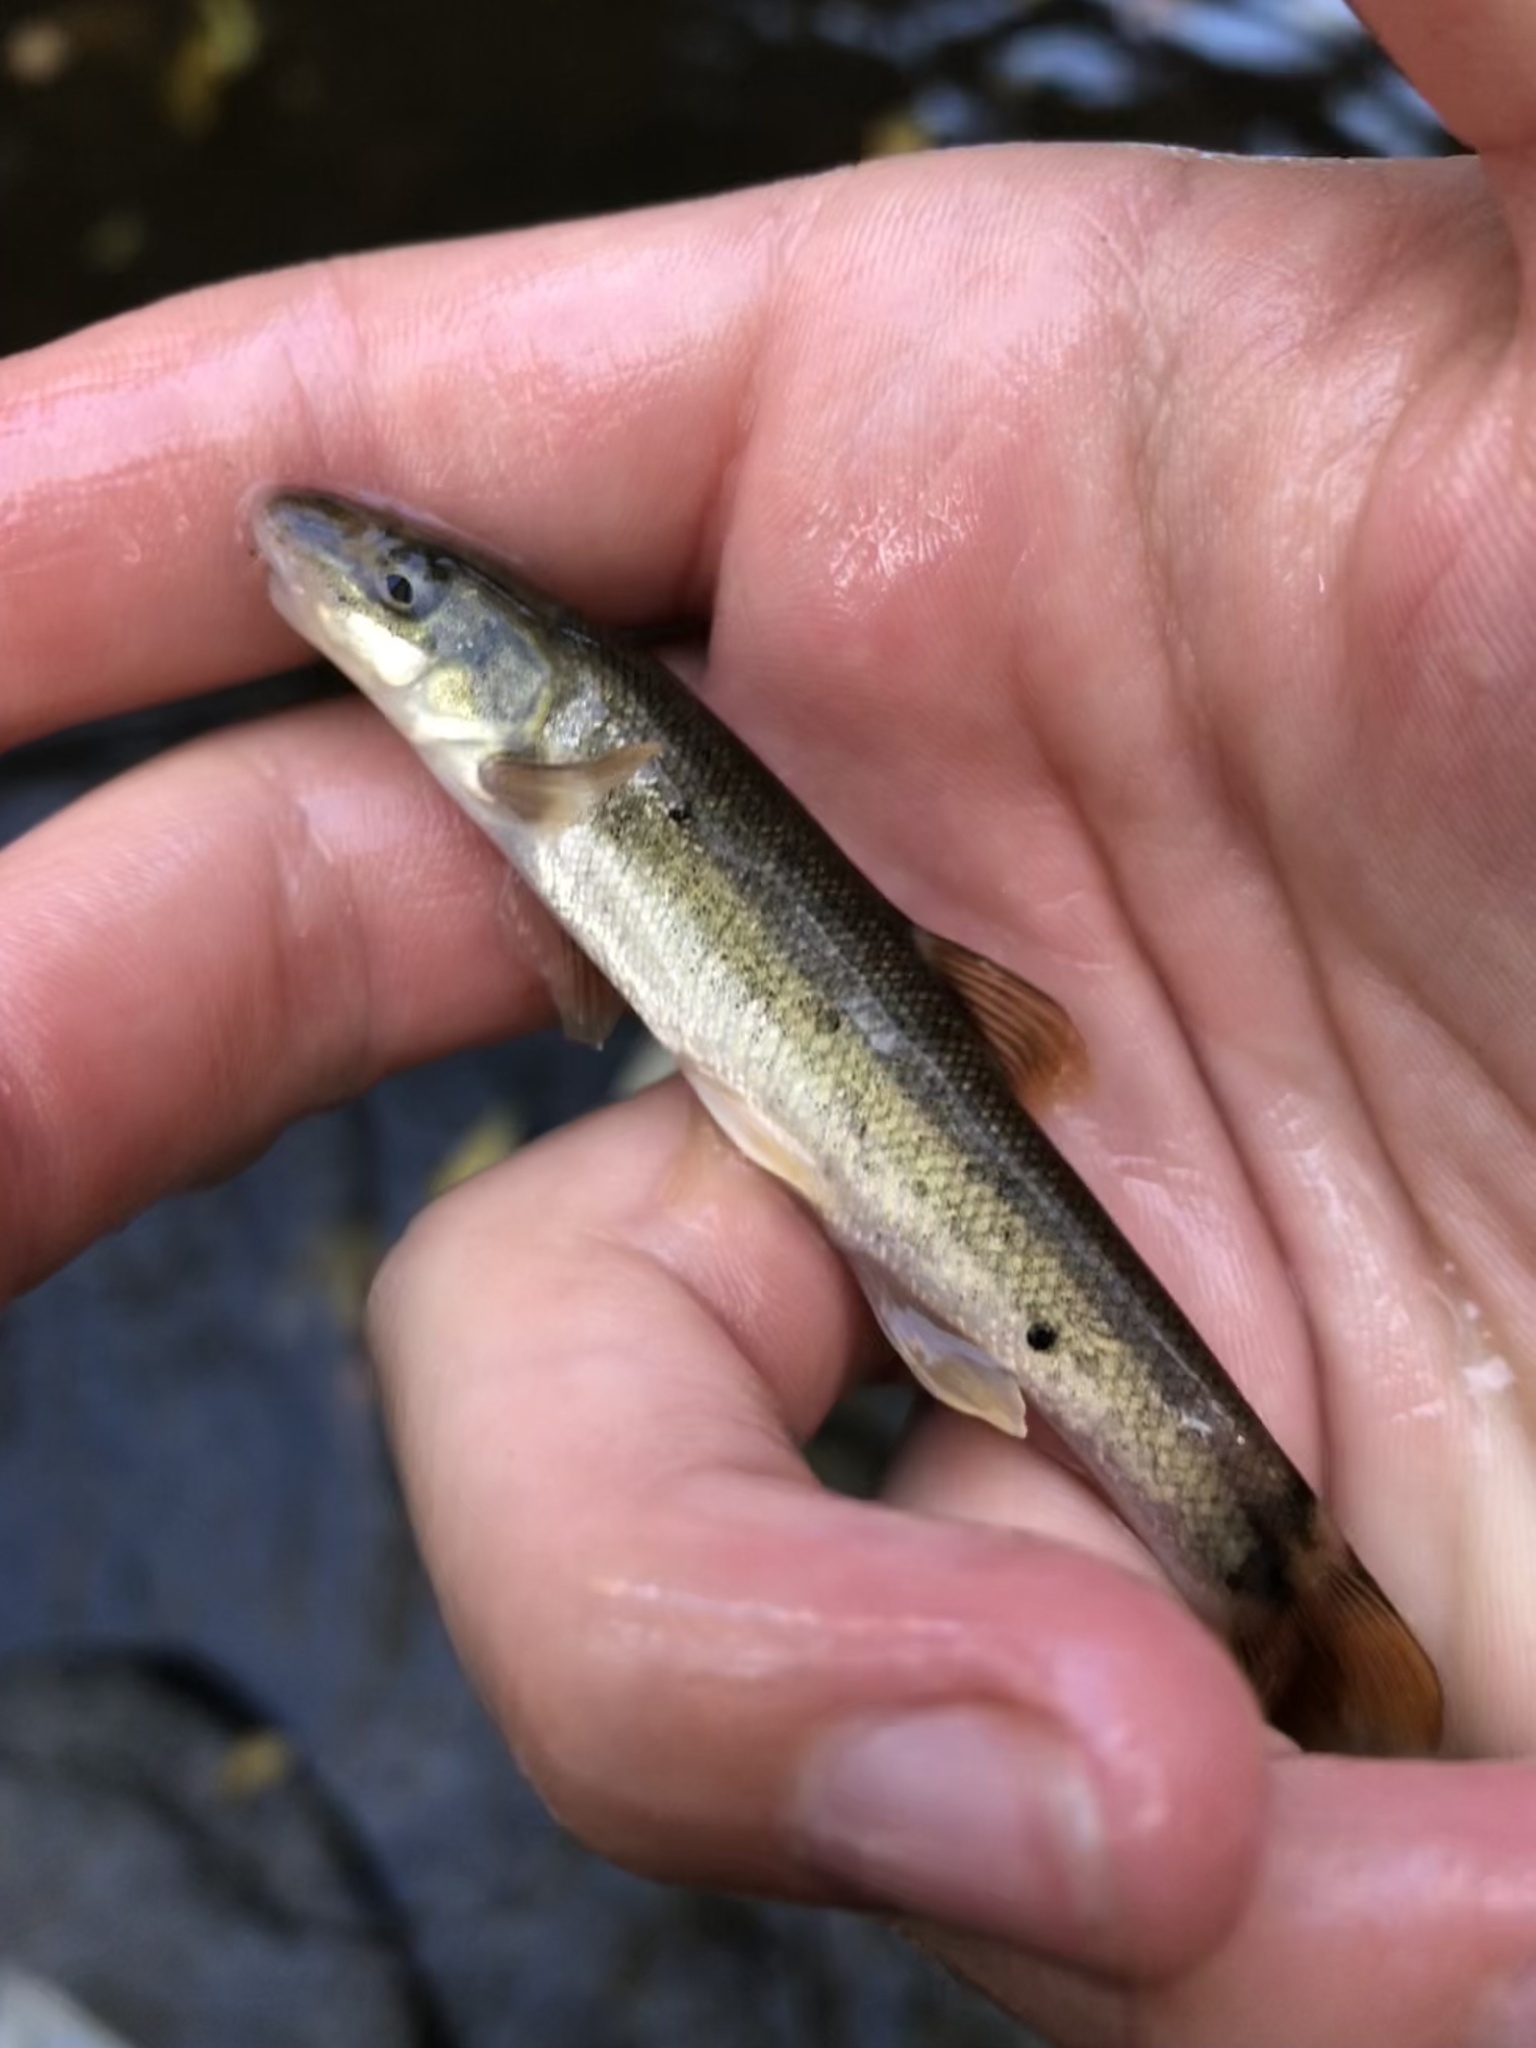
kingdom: Animalia
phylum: Platyhelminthes
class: Trematoda
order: Diplostomida
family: Diplostomidae
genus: Neascus
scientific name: Neascus
